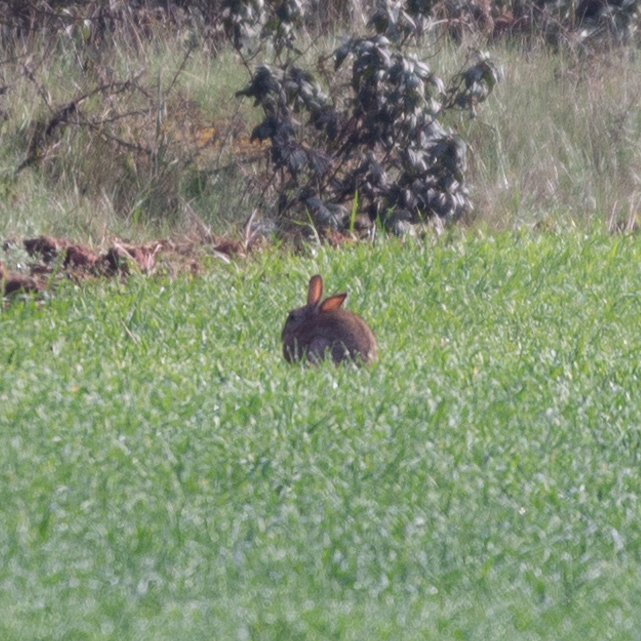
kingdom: Animalia
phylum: Chordata
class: Mammalia
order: Lagomorpha
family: Leporidae
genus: Oryctolagus
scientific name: Oryctolagus cuniculus
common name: European rabbit
